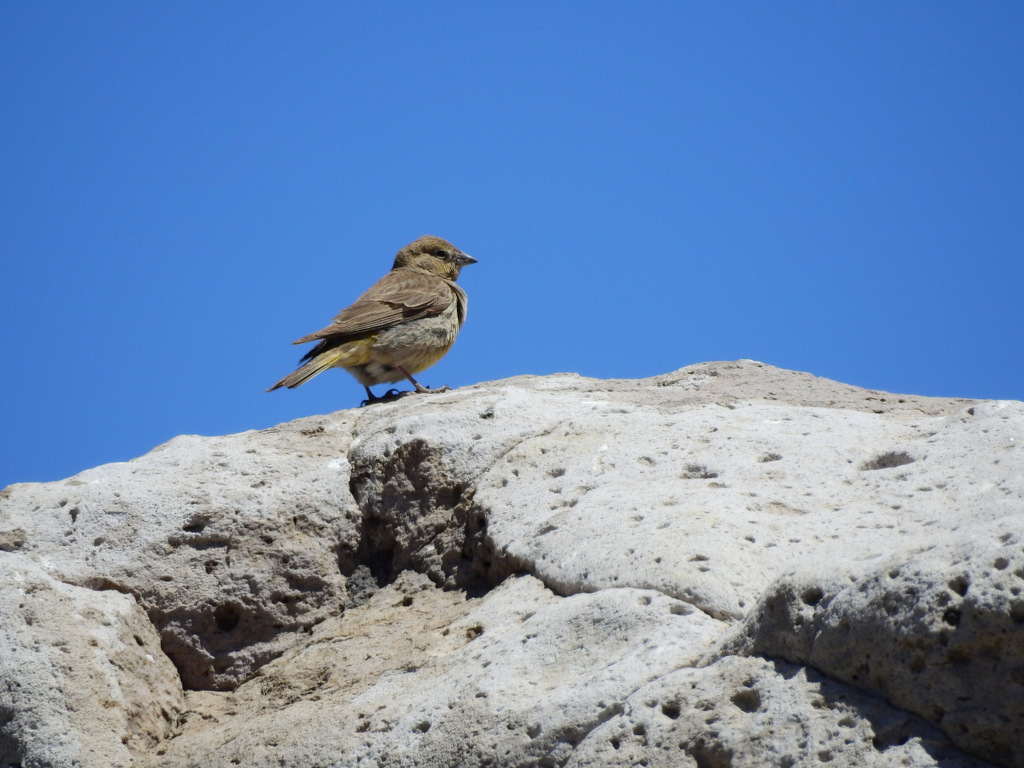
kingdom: Animalia
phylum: Chordata
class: Aves
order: Passeriformes
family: Thraupidae
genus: Sicalis
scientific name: Sicalis auriventris
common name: Greater yellow finch
